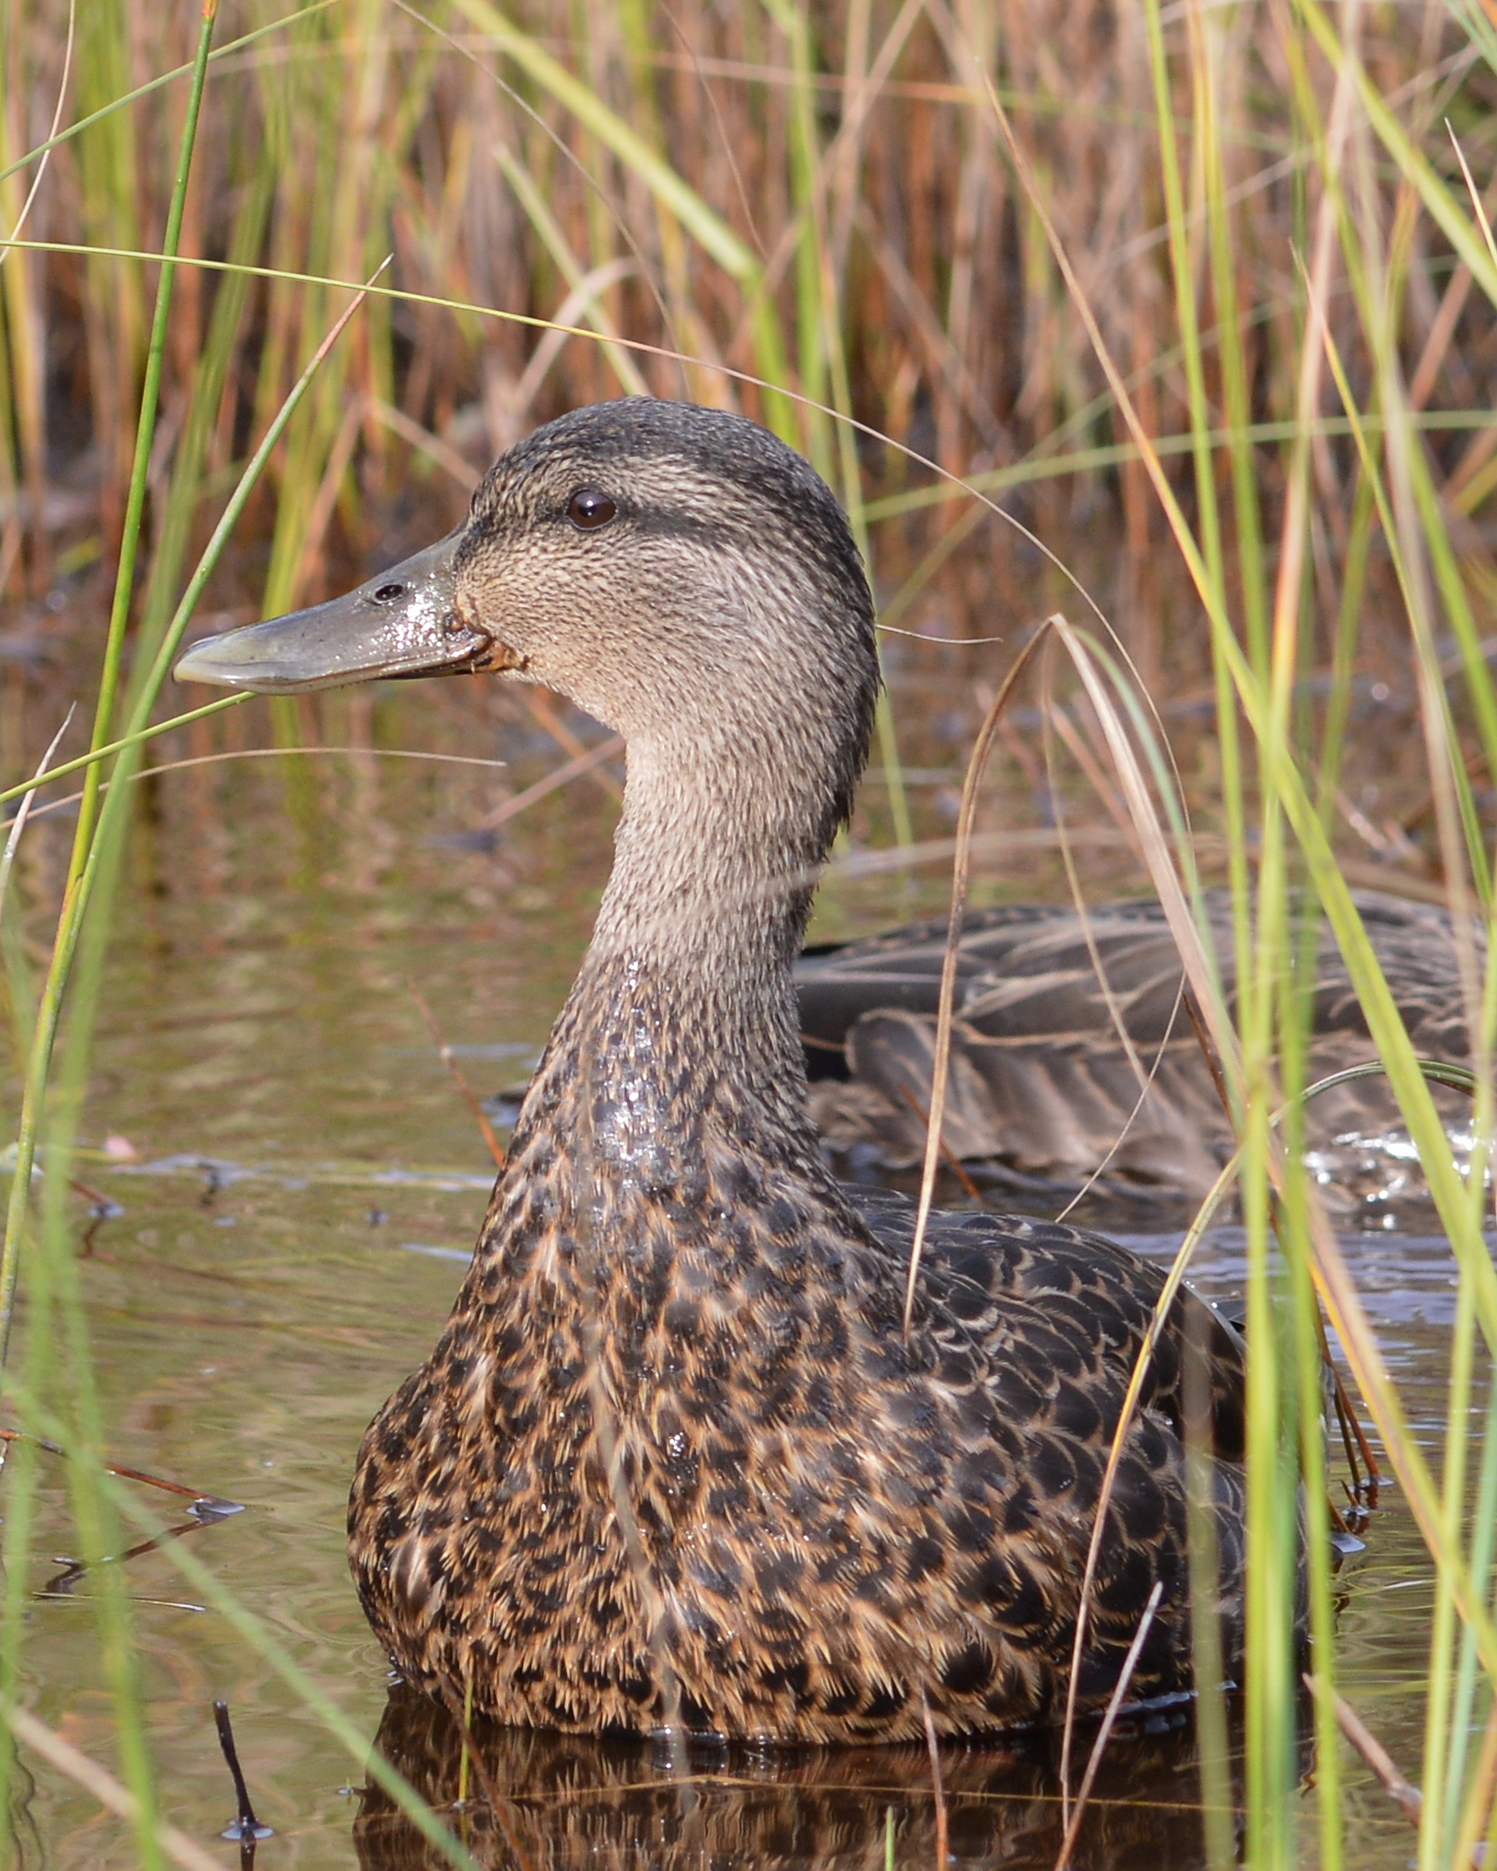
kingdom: Animalia
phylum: Chordata
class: Aves
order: Anseriformes
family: Anatidae
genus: Anas
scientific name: Anas platyrhynchos
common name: Mallard
